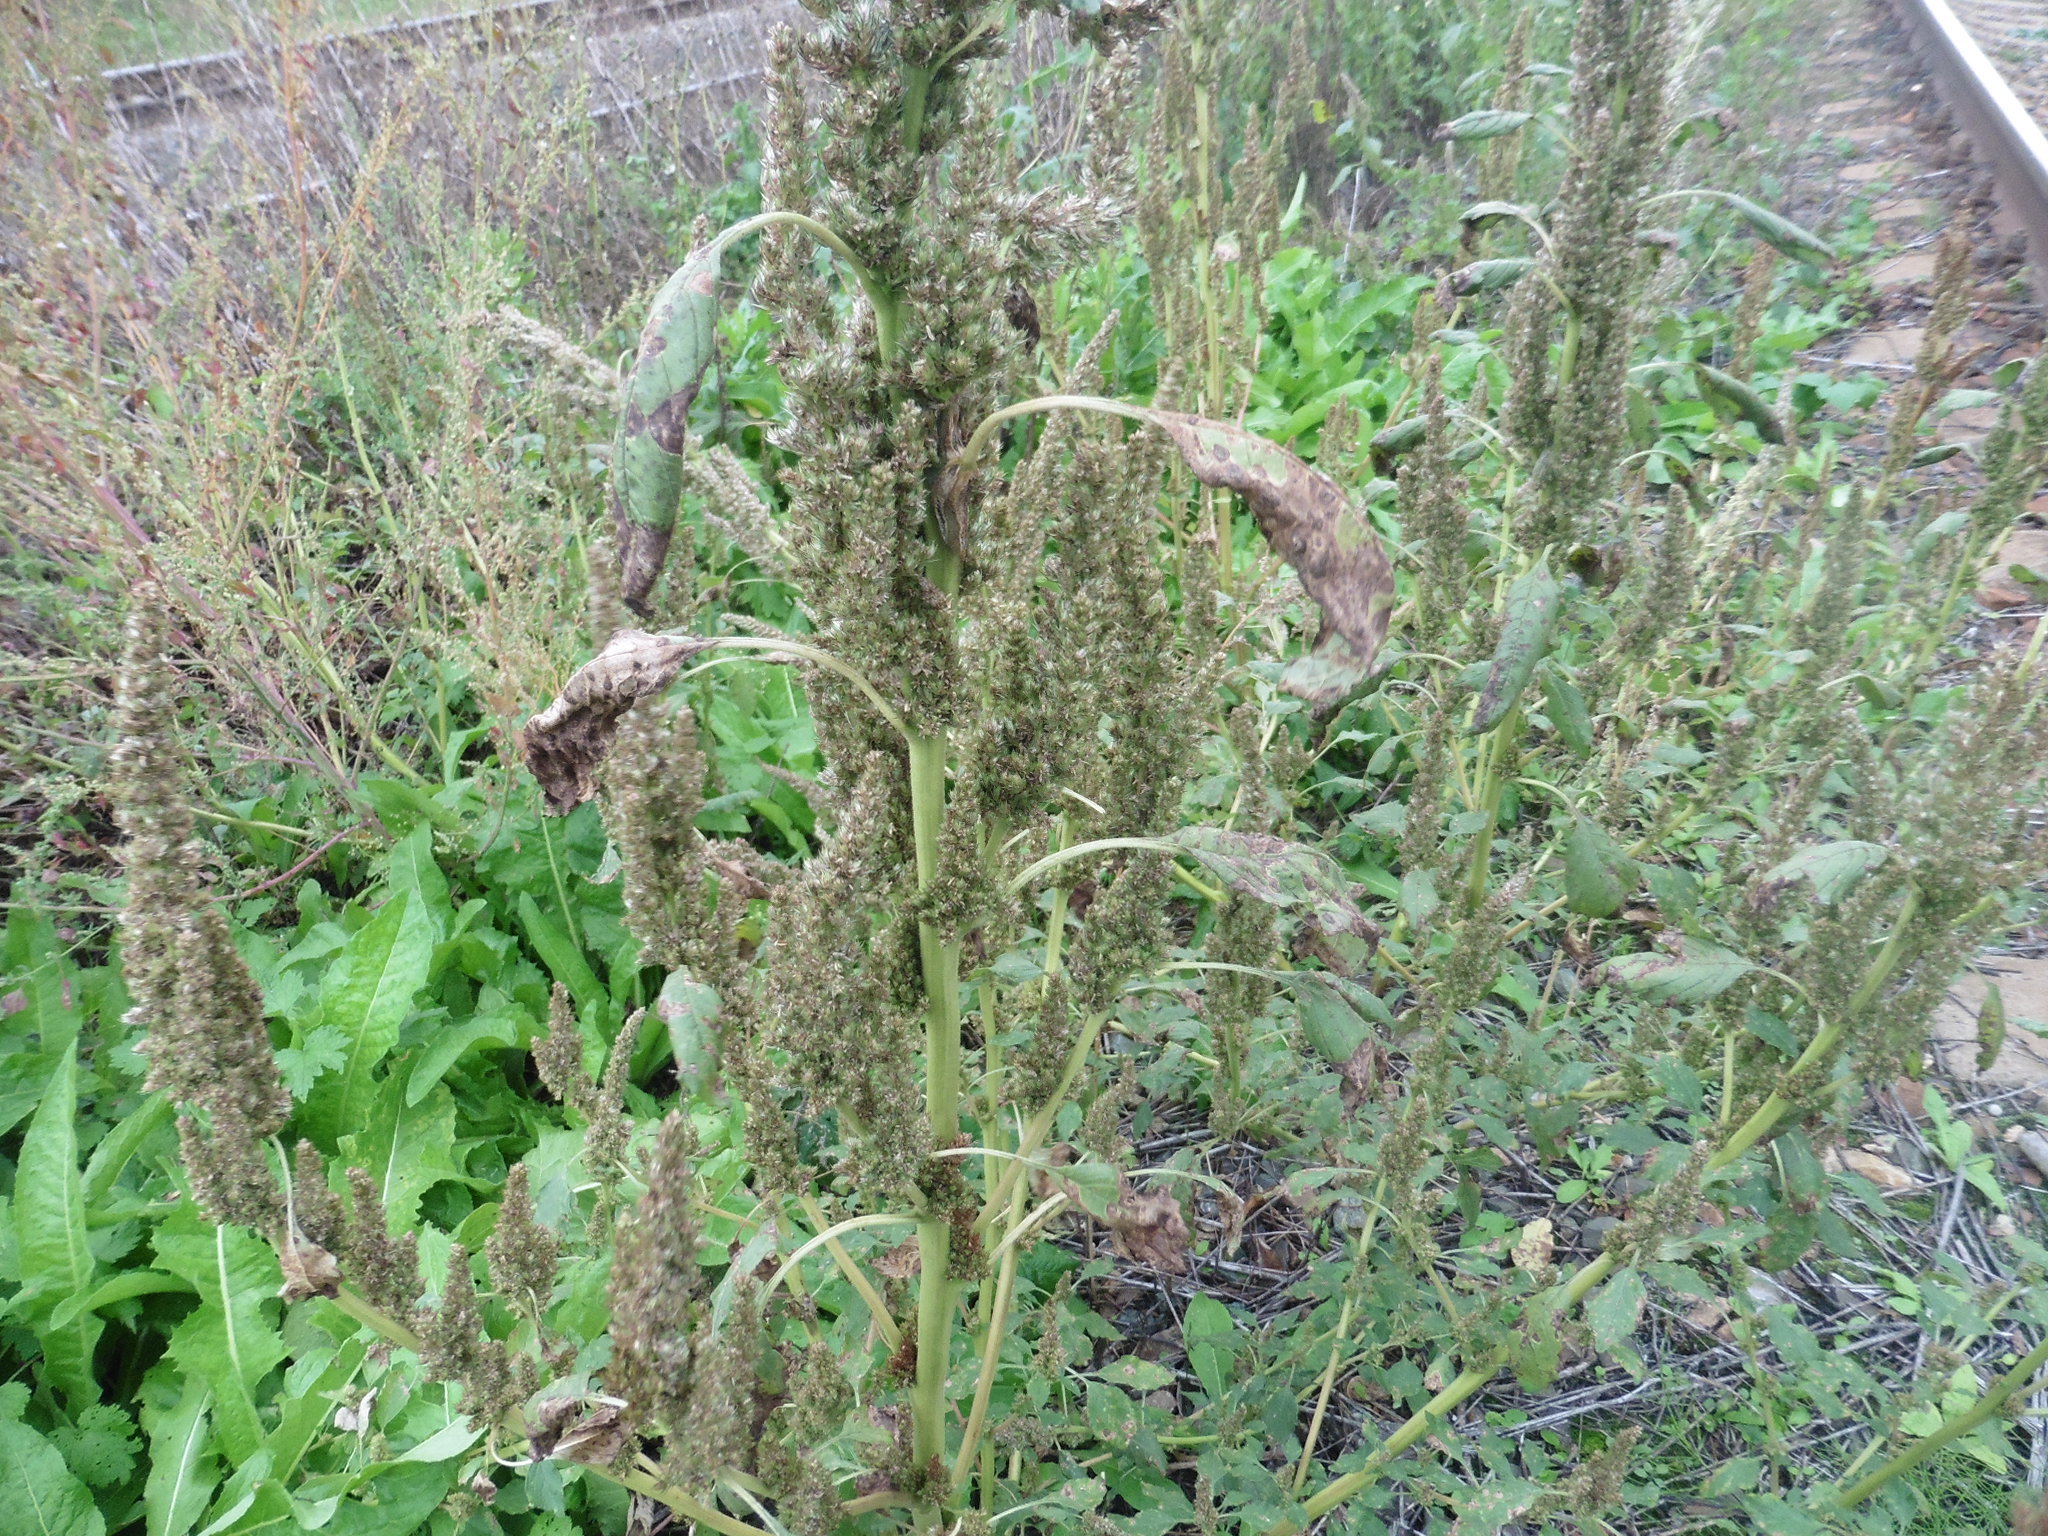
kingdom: Plantae
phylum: Tracheophyta
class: Magnoliopsida
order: Caryophyllales
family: Amaranthaceae
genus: Amaranthus
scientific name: Amaranthus retroflexus
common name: Redroot amaranth
